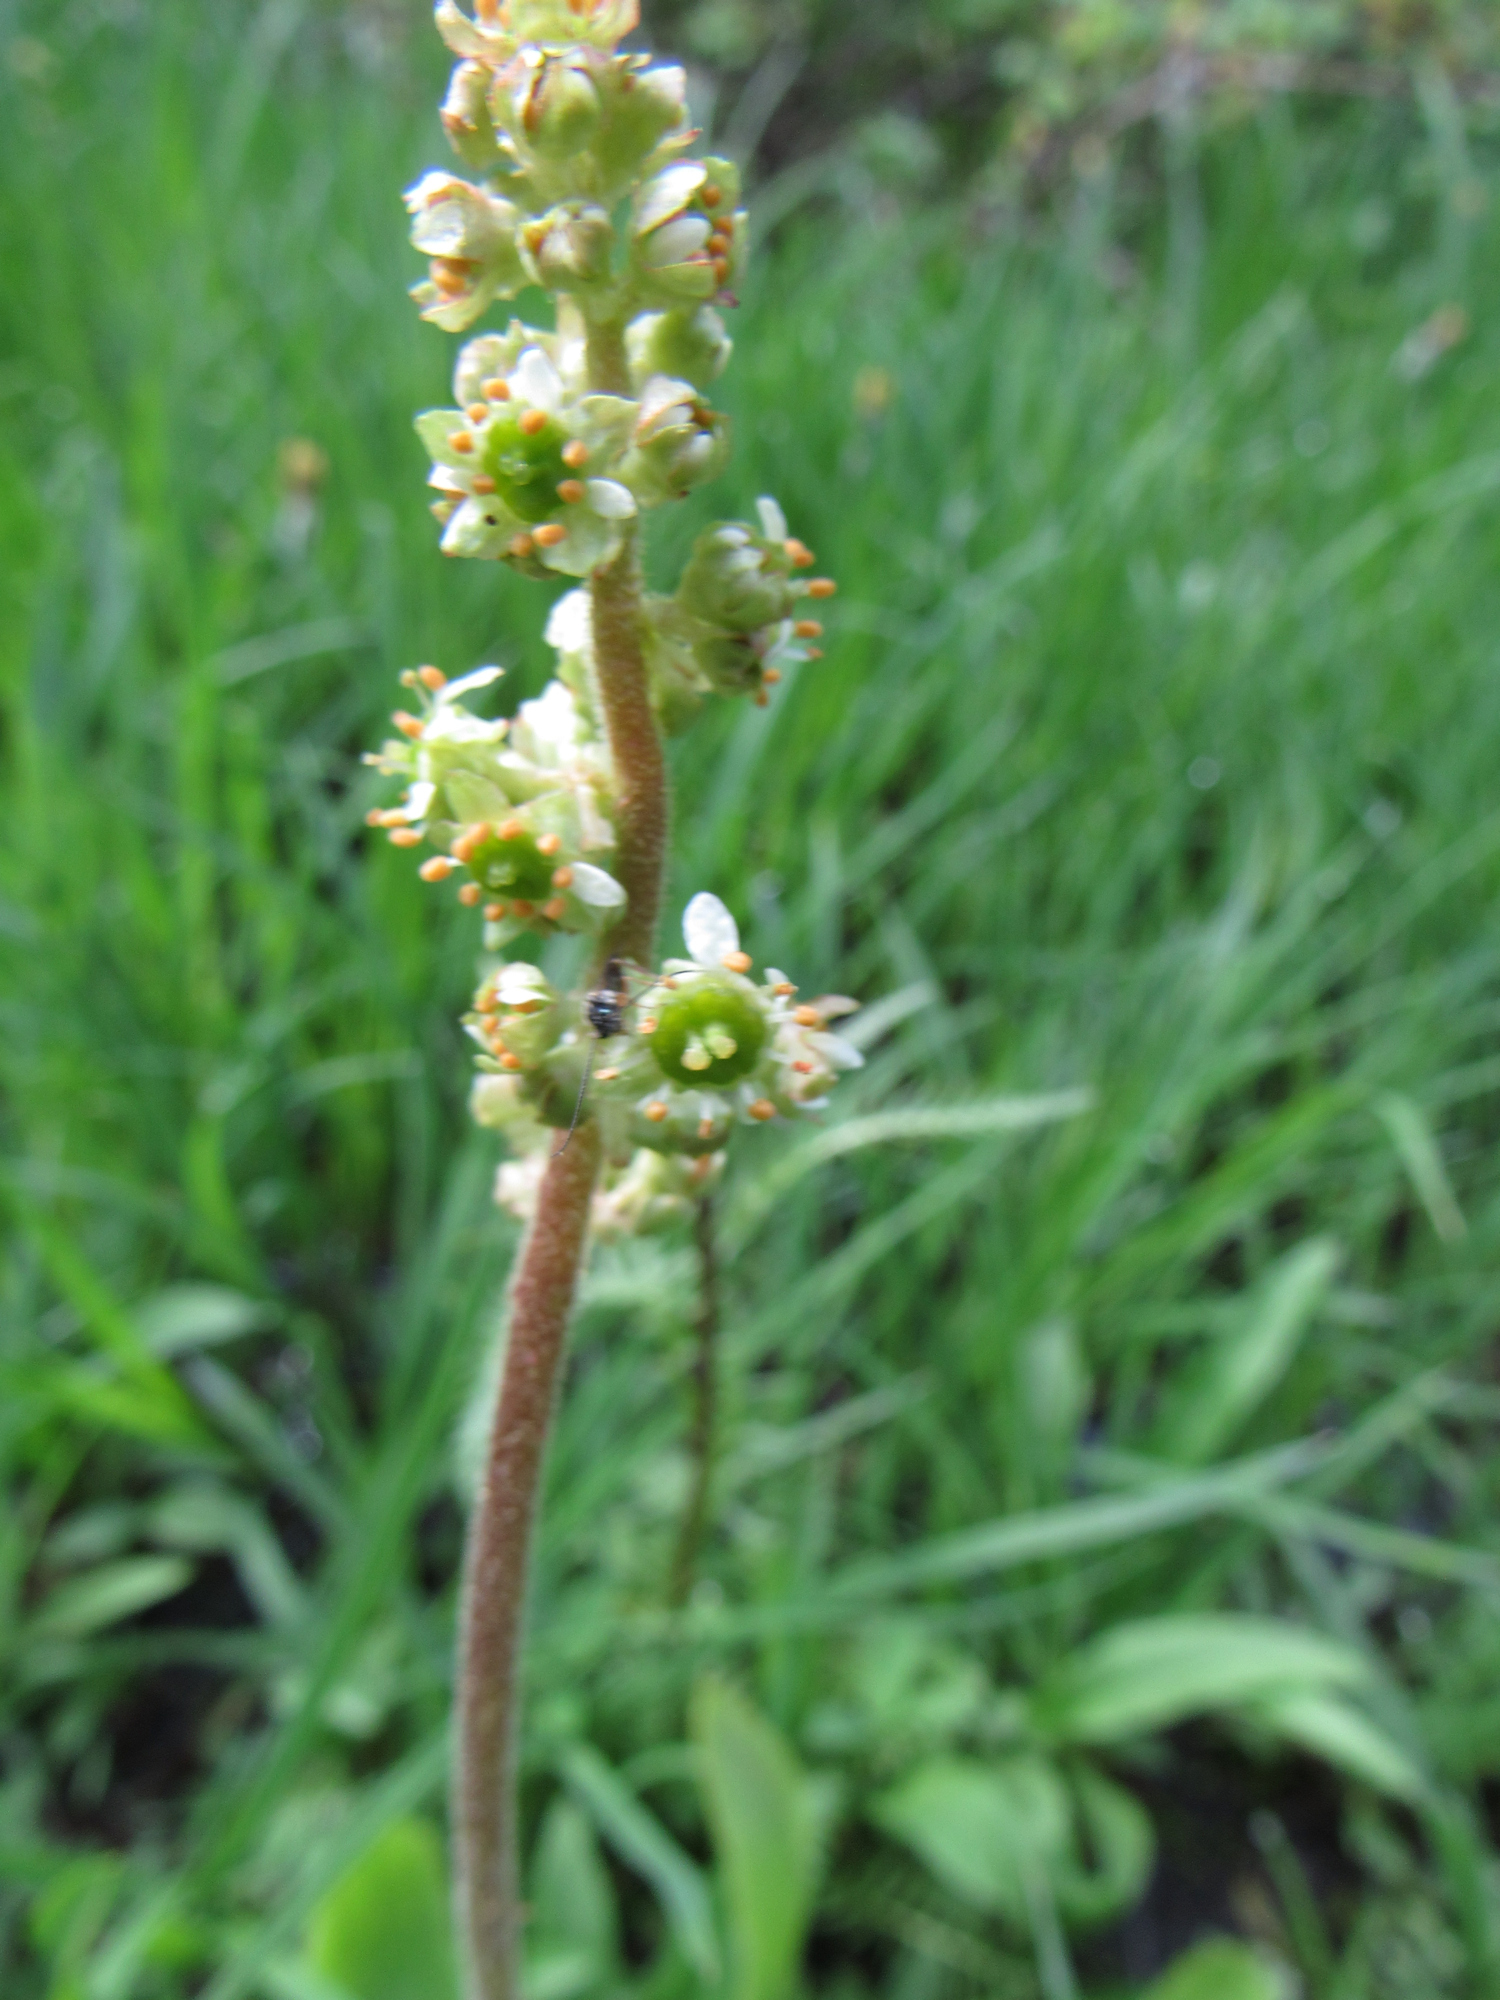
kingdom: Plantae
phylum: Tracheophyta
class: Magnoliopsida
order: Saxifragales
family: Saxifragaceae
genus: Micranthes
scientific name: Micranthes oregana
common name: Bog saxifrage
